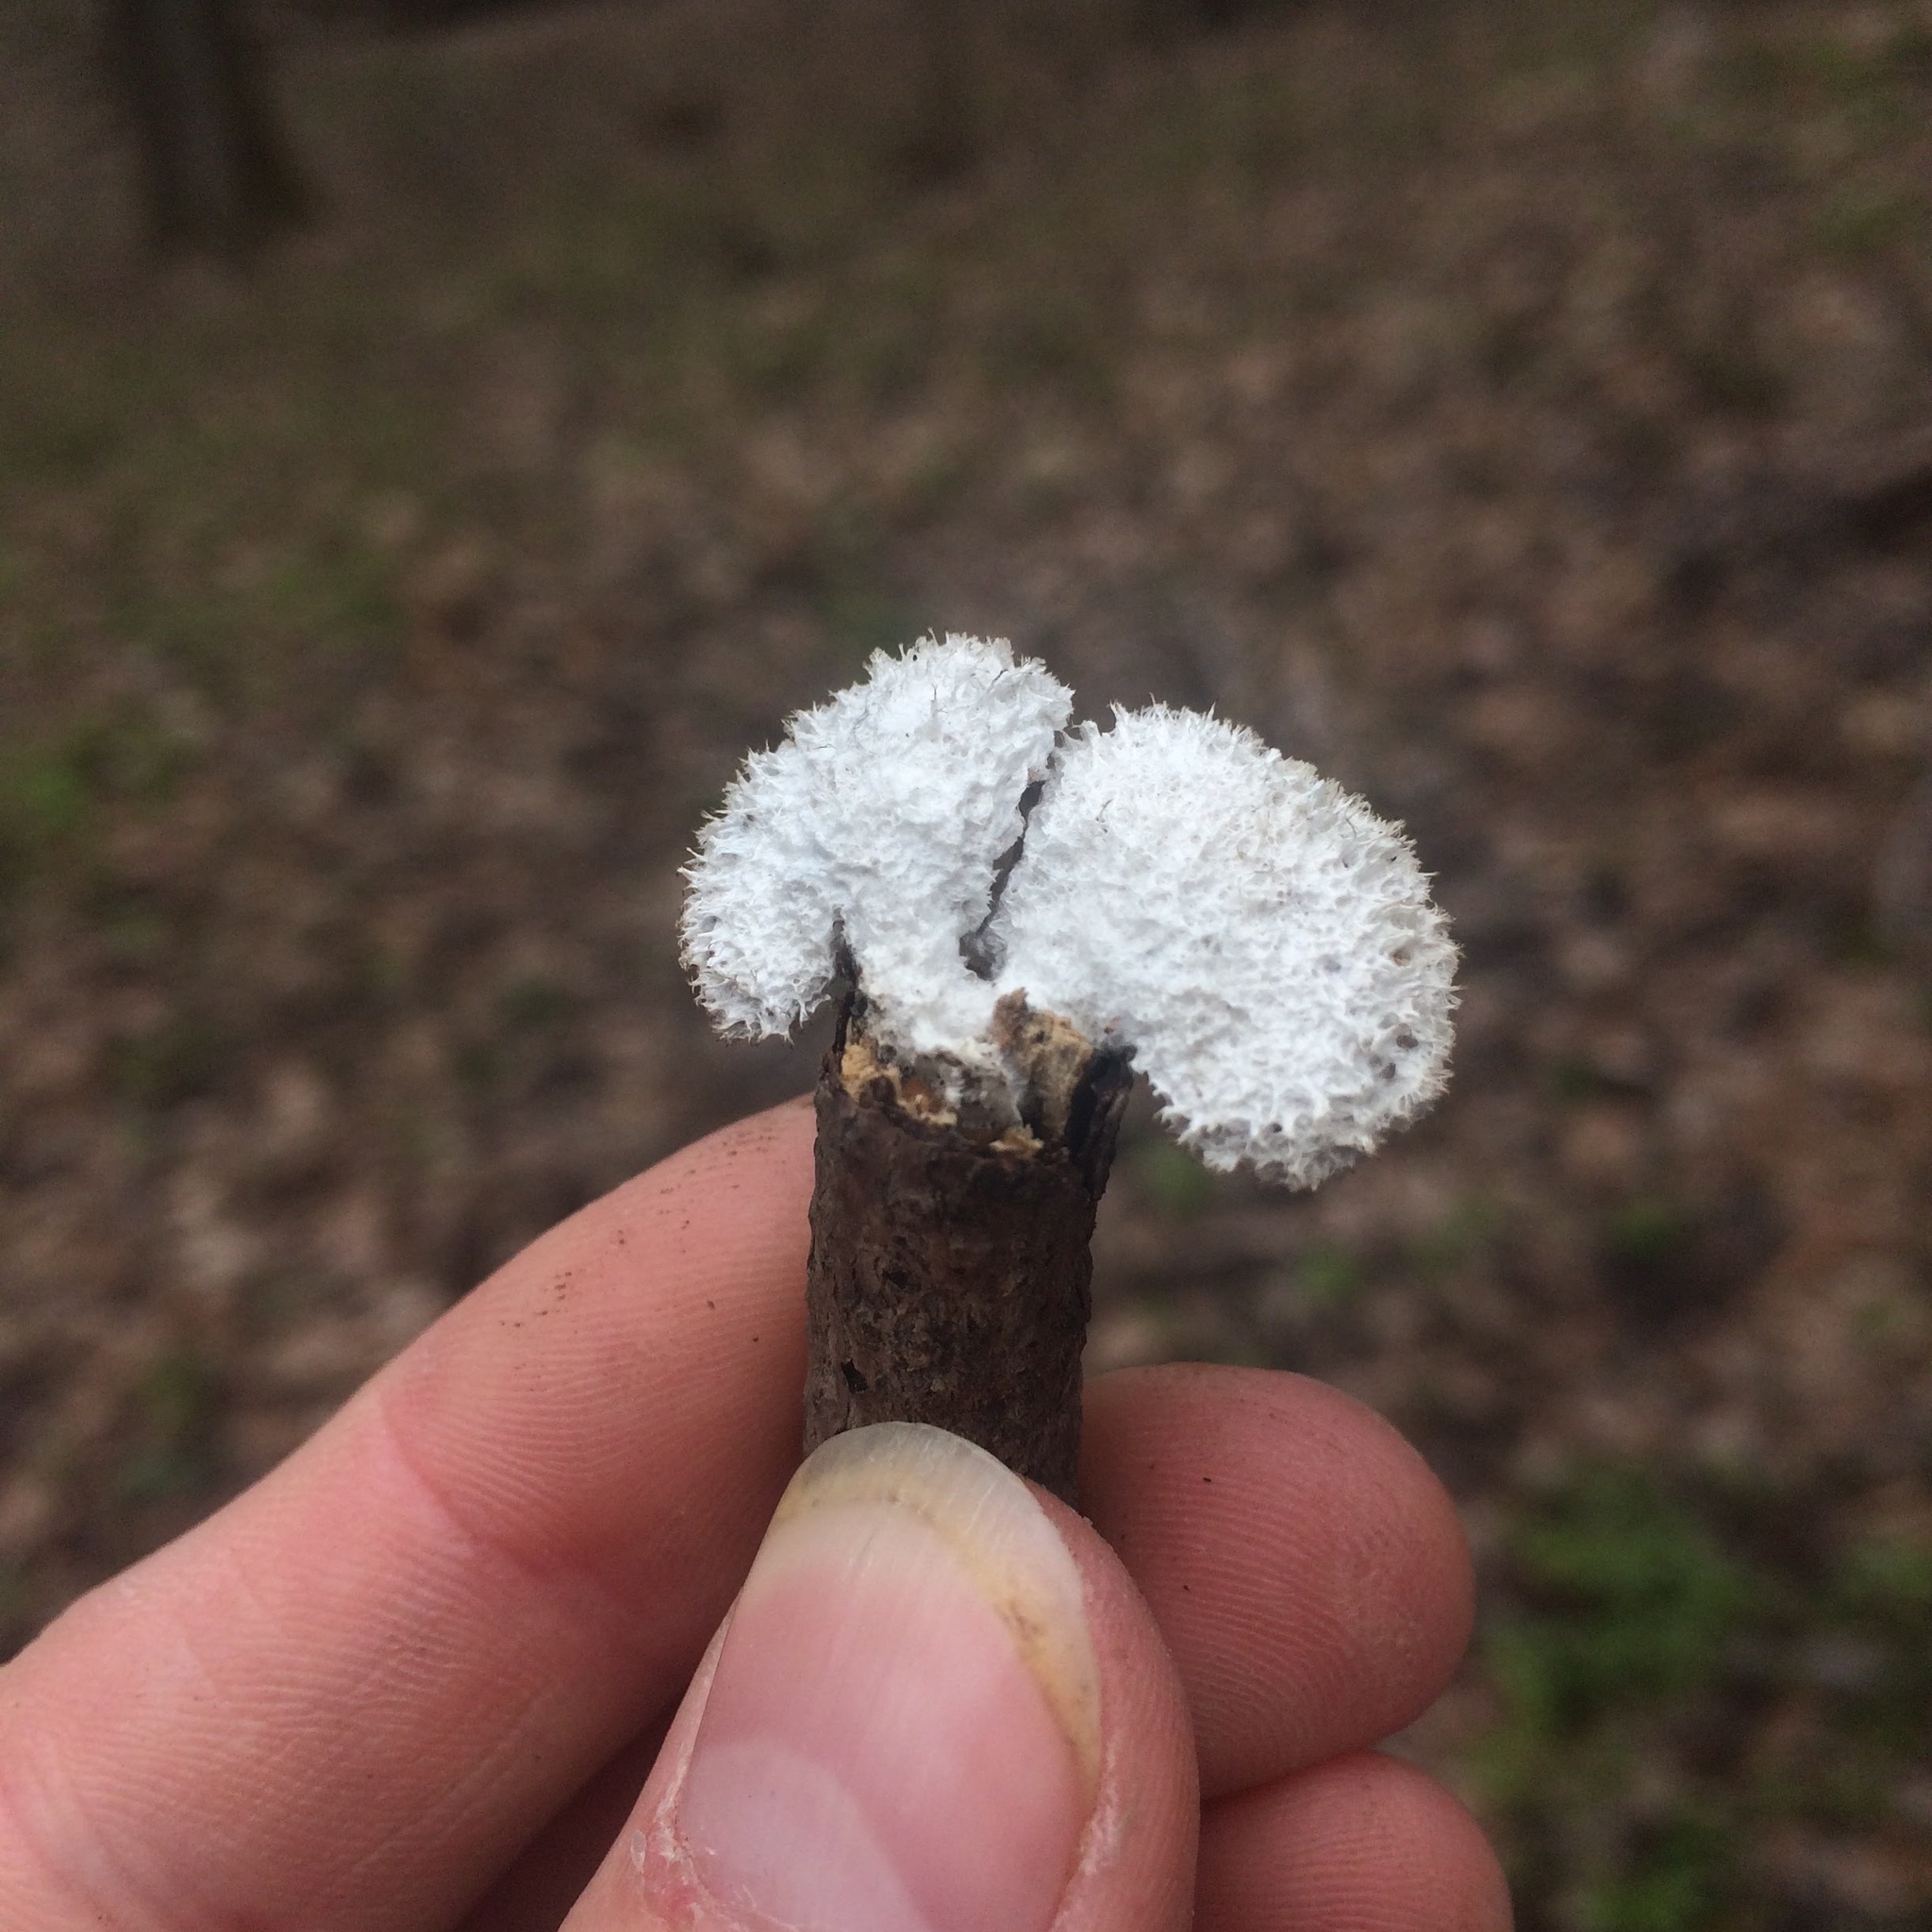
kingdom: Fungi
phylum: Basidiomycota
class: Agaricomycetes
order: Agaricales
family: Schizophyllaceae
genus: Schizophyllum
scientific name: Schizophyllum commune
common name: Common porecrust
